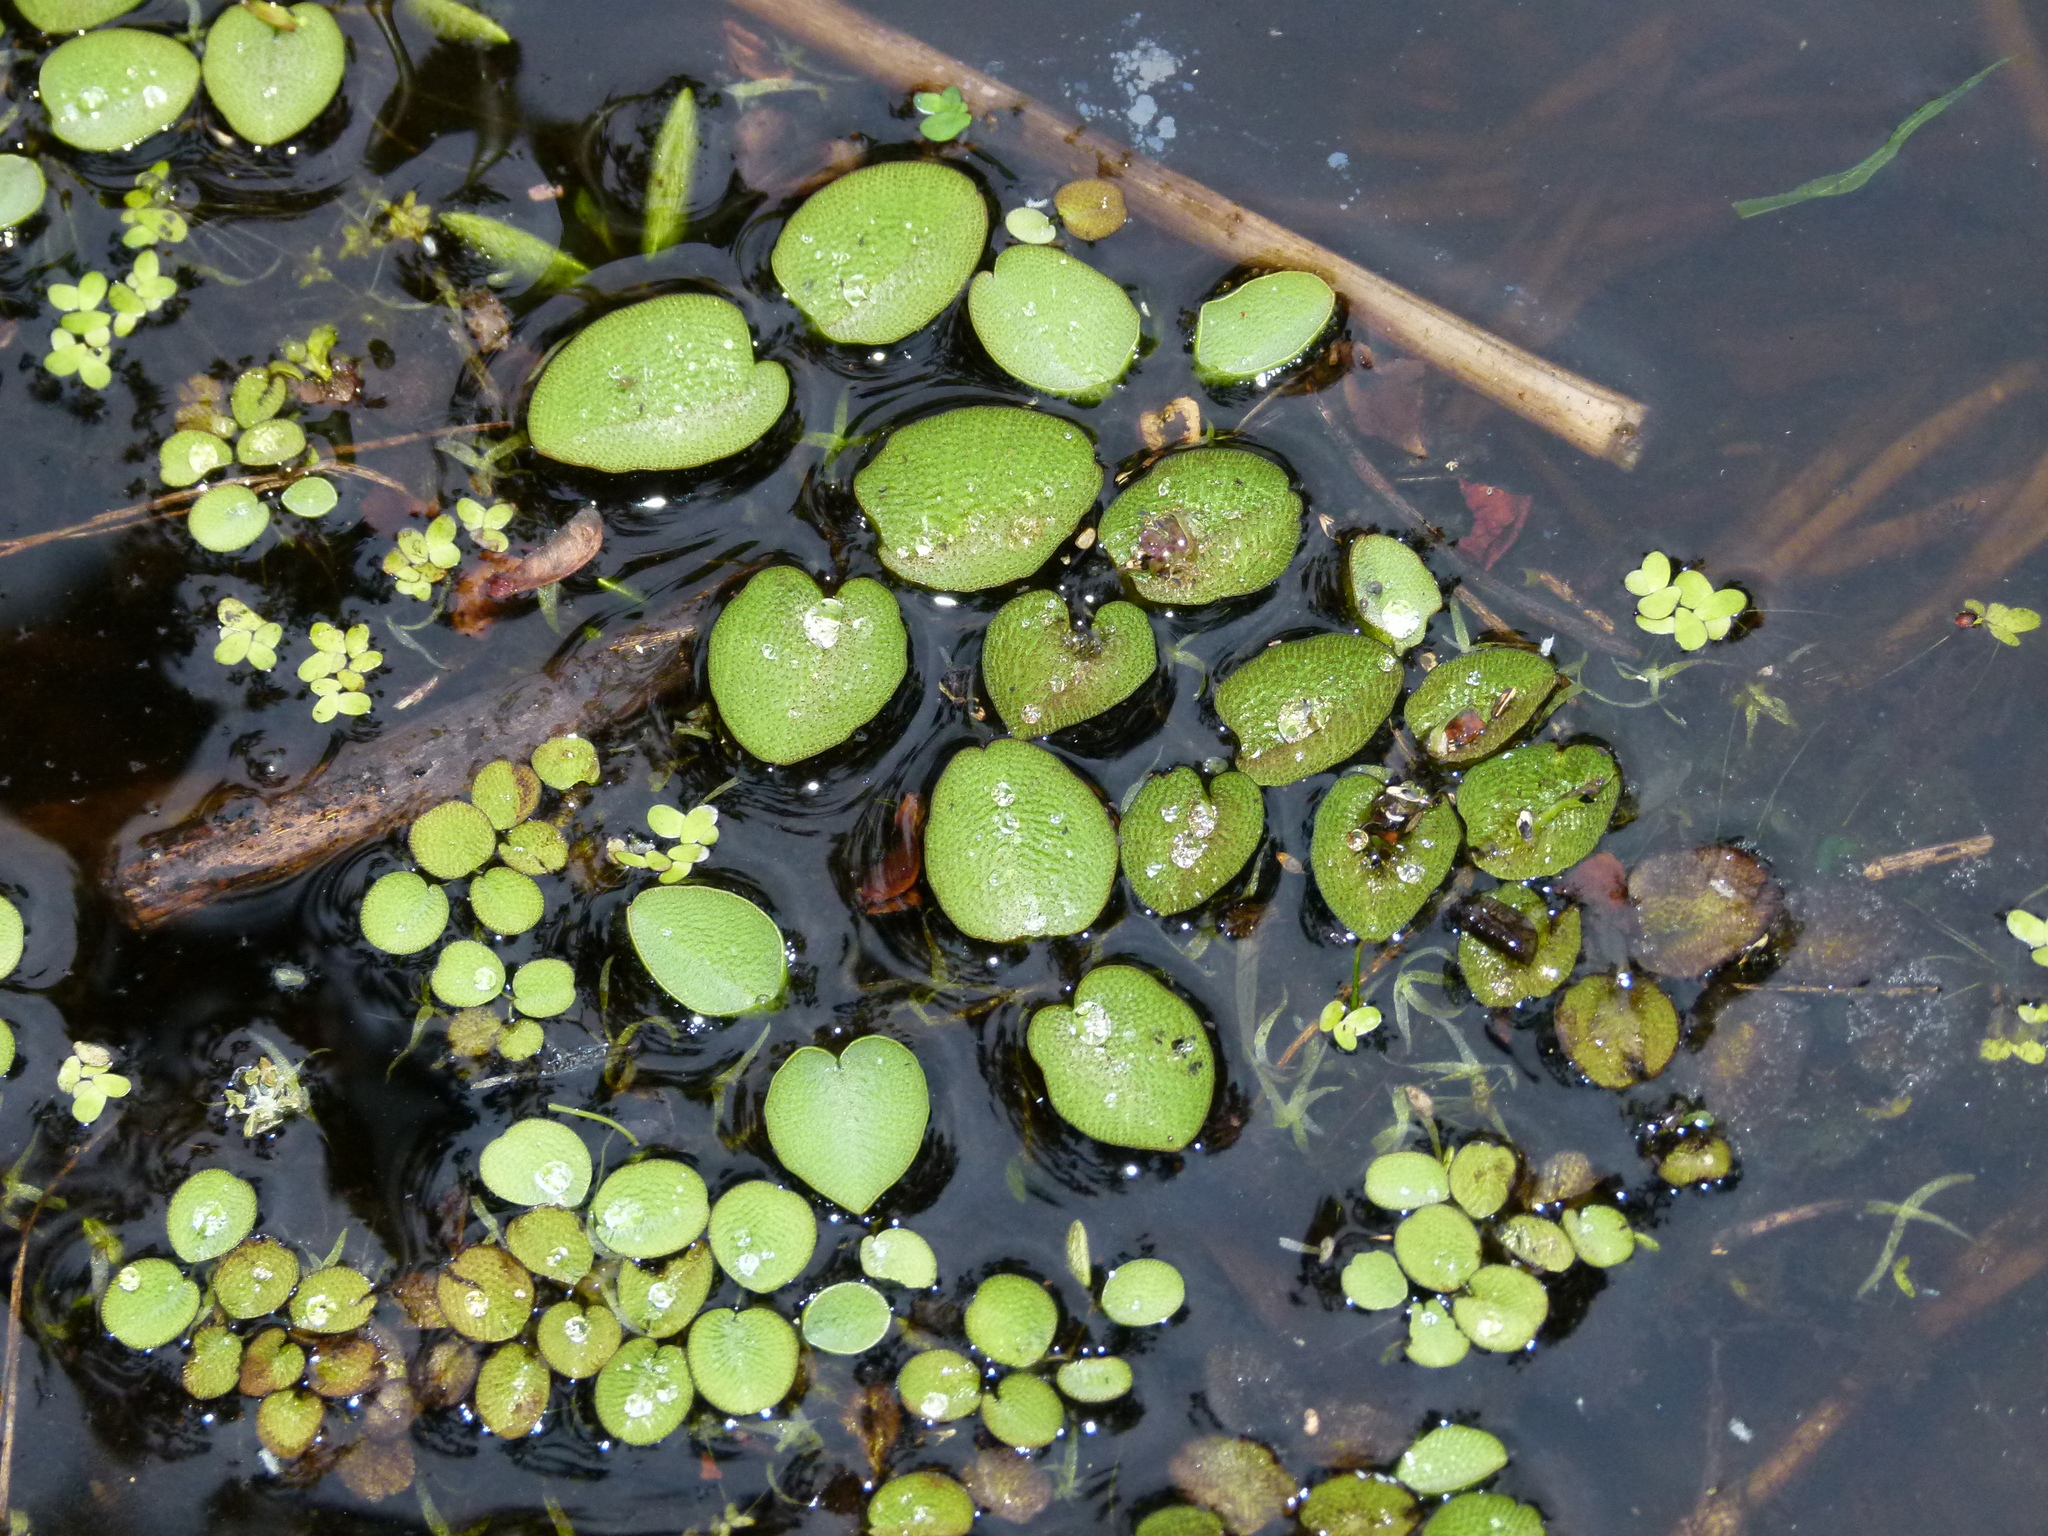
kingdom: Plantae
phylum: Tracheophyta
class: Polypodiopsida
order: Salviniales
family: Salviniaceae
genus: Salvinia
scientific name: Salvinia molesta
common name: Kariba weed
